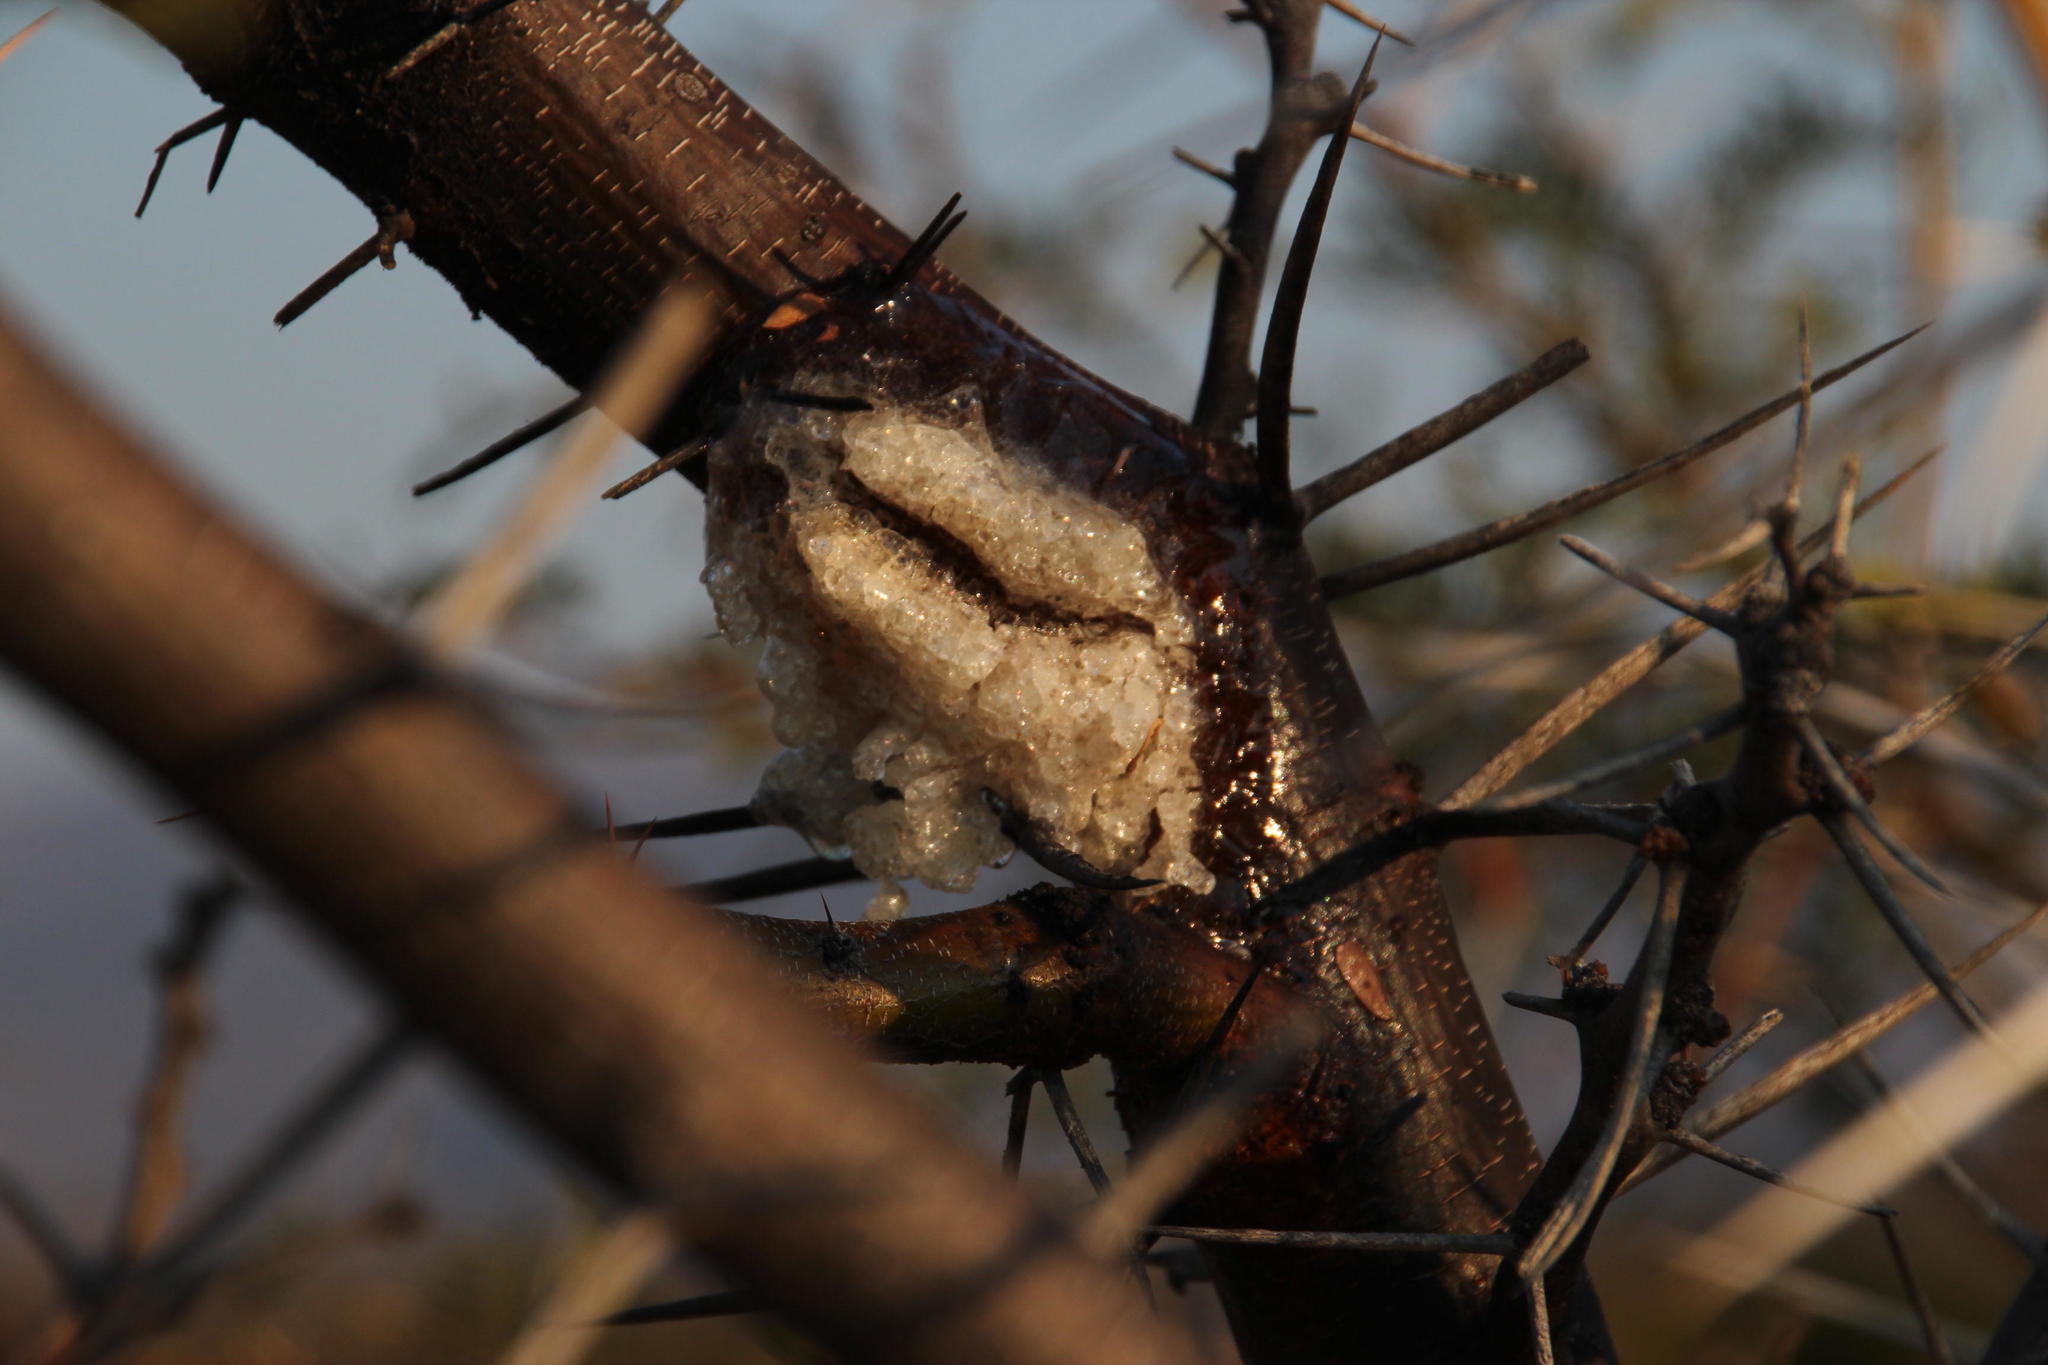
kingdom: Plantae
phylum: Tracheophyta
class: Magnoliopsida
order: Fabales
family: Fabaceae
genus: Vachellia
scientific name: Vachellia karroo
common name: Sweet thorn
